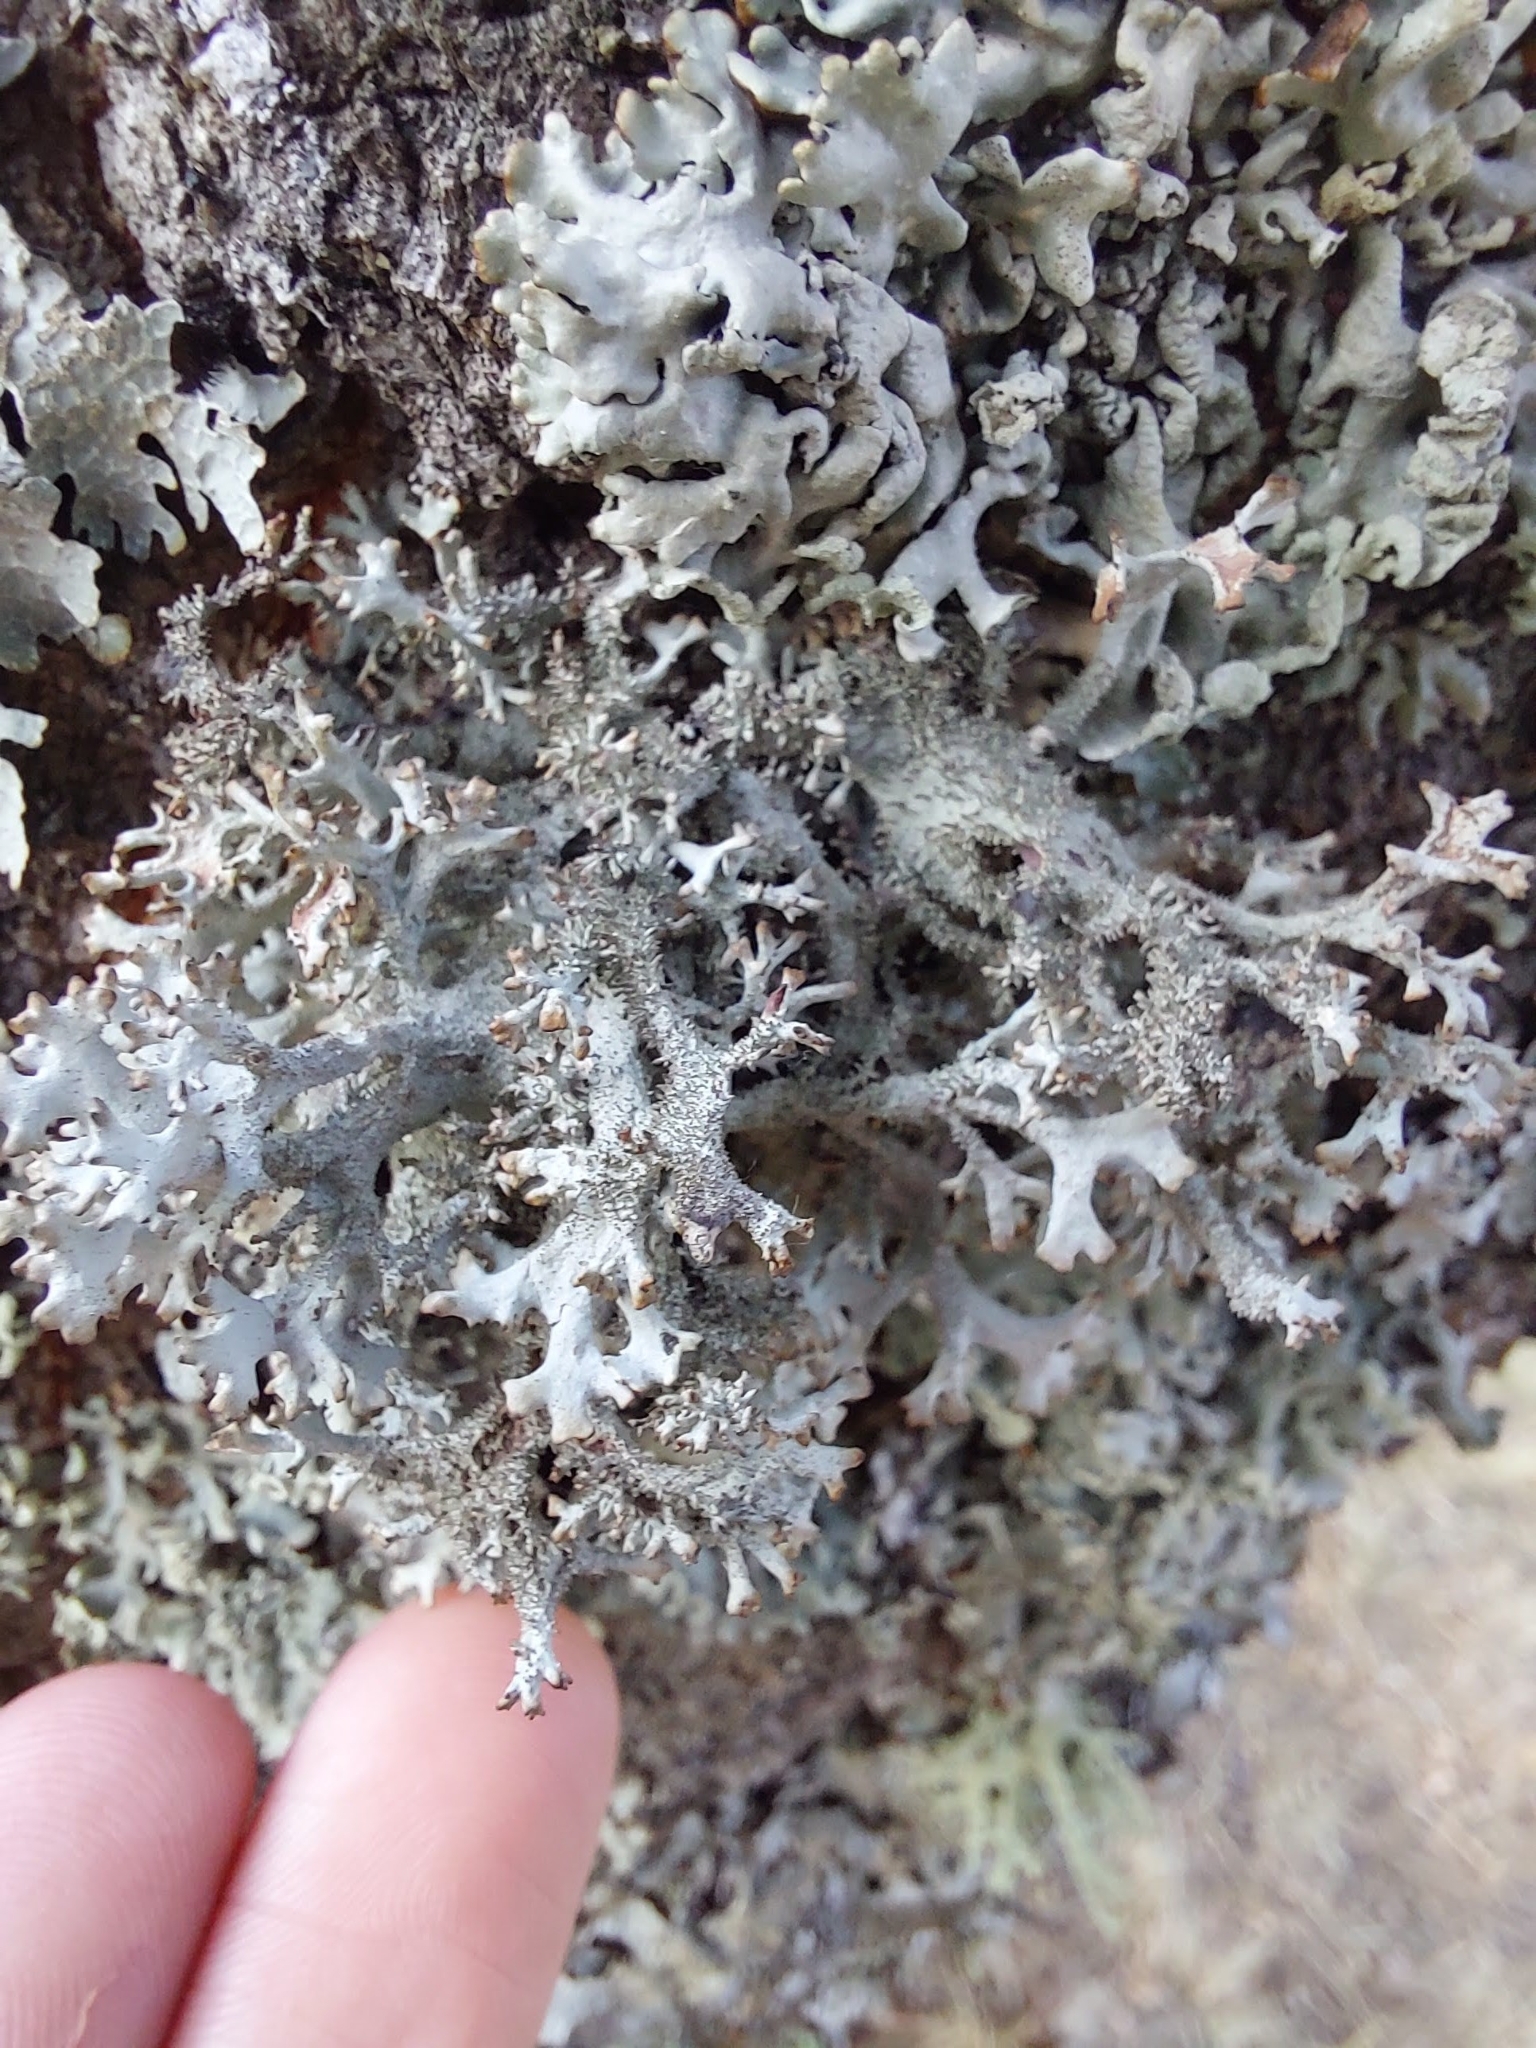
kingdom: Fungi
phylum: Ascomycota
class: Lecanoromycetes
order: Lecanorales
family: Parmeliaceae
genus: Pseudevernia
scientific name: Pseudevernia furfuracea
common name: Tree moss
